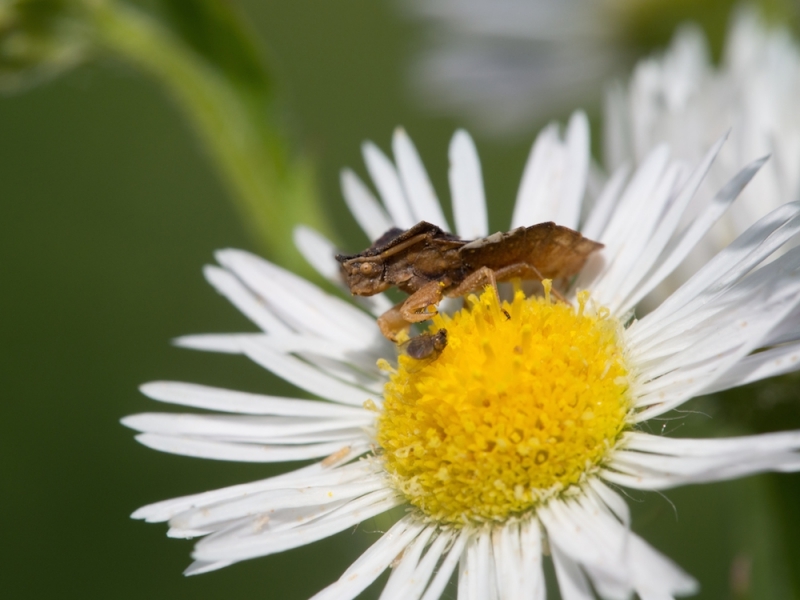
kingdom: Animalia
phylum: Arthropoda
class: Insecta
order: Hemiptera
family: Reduviidae
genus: Phymata
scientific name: Phymata crassipes
